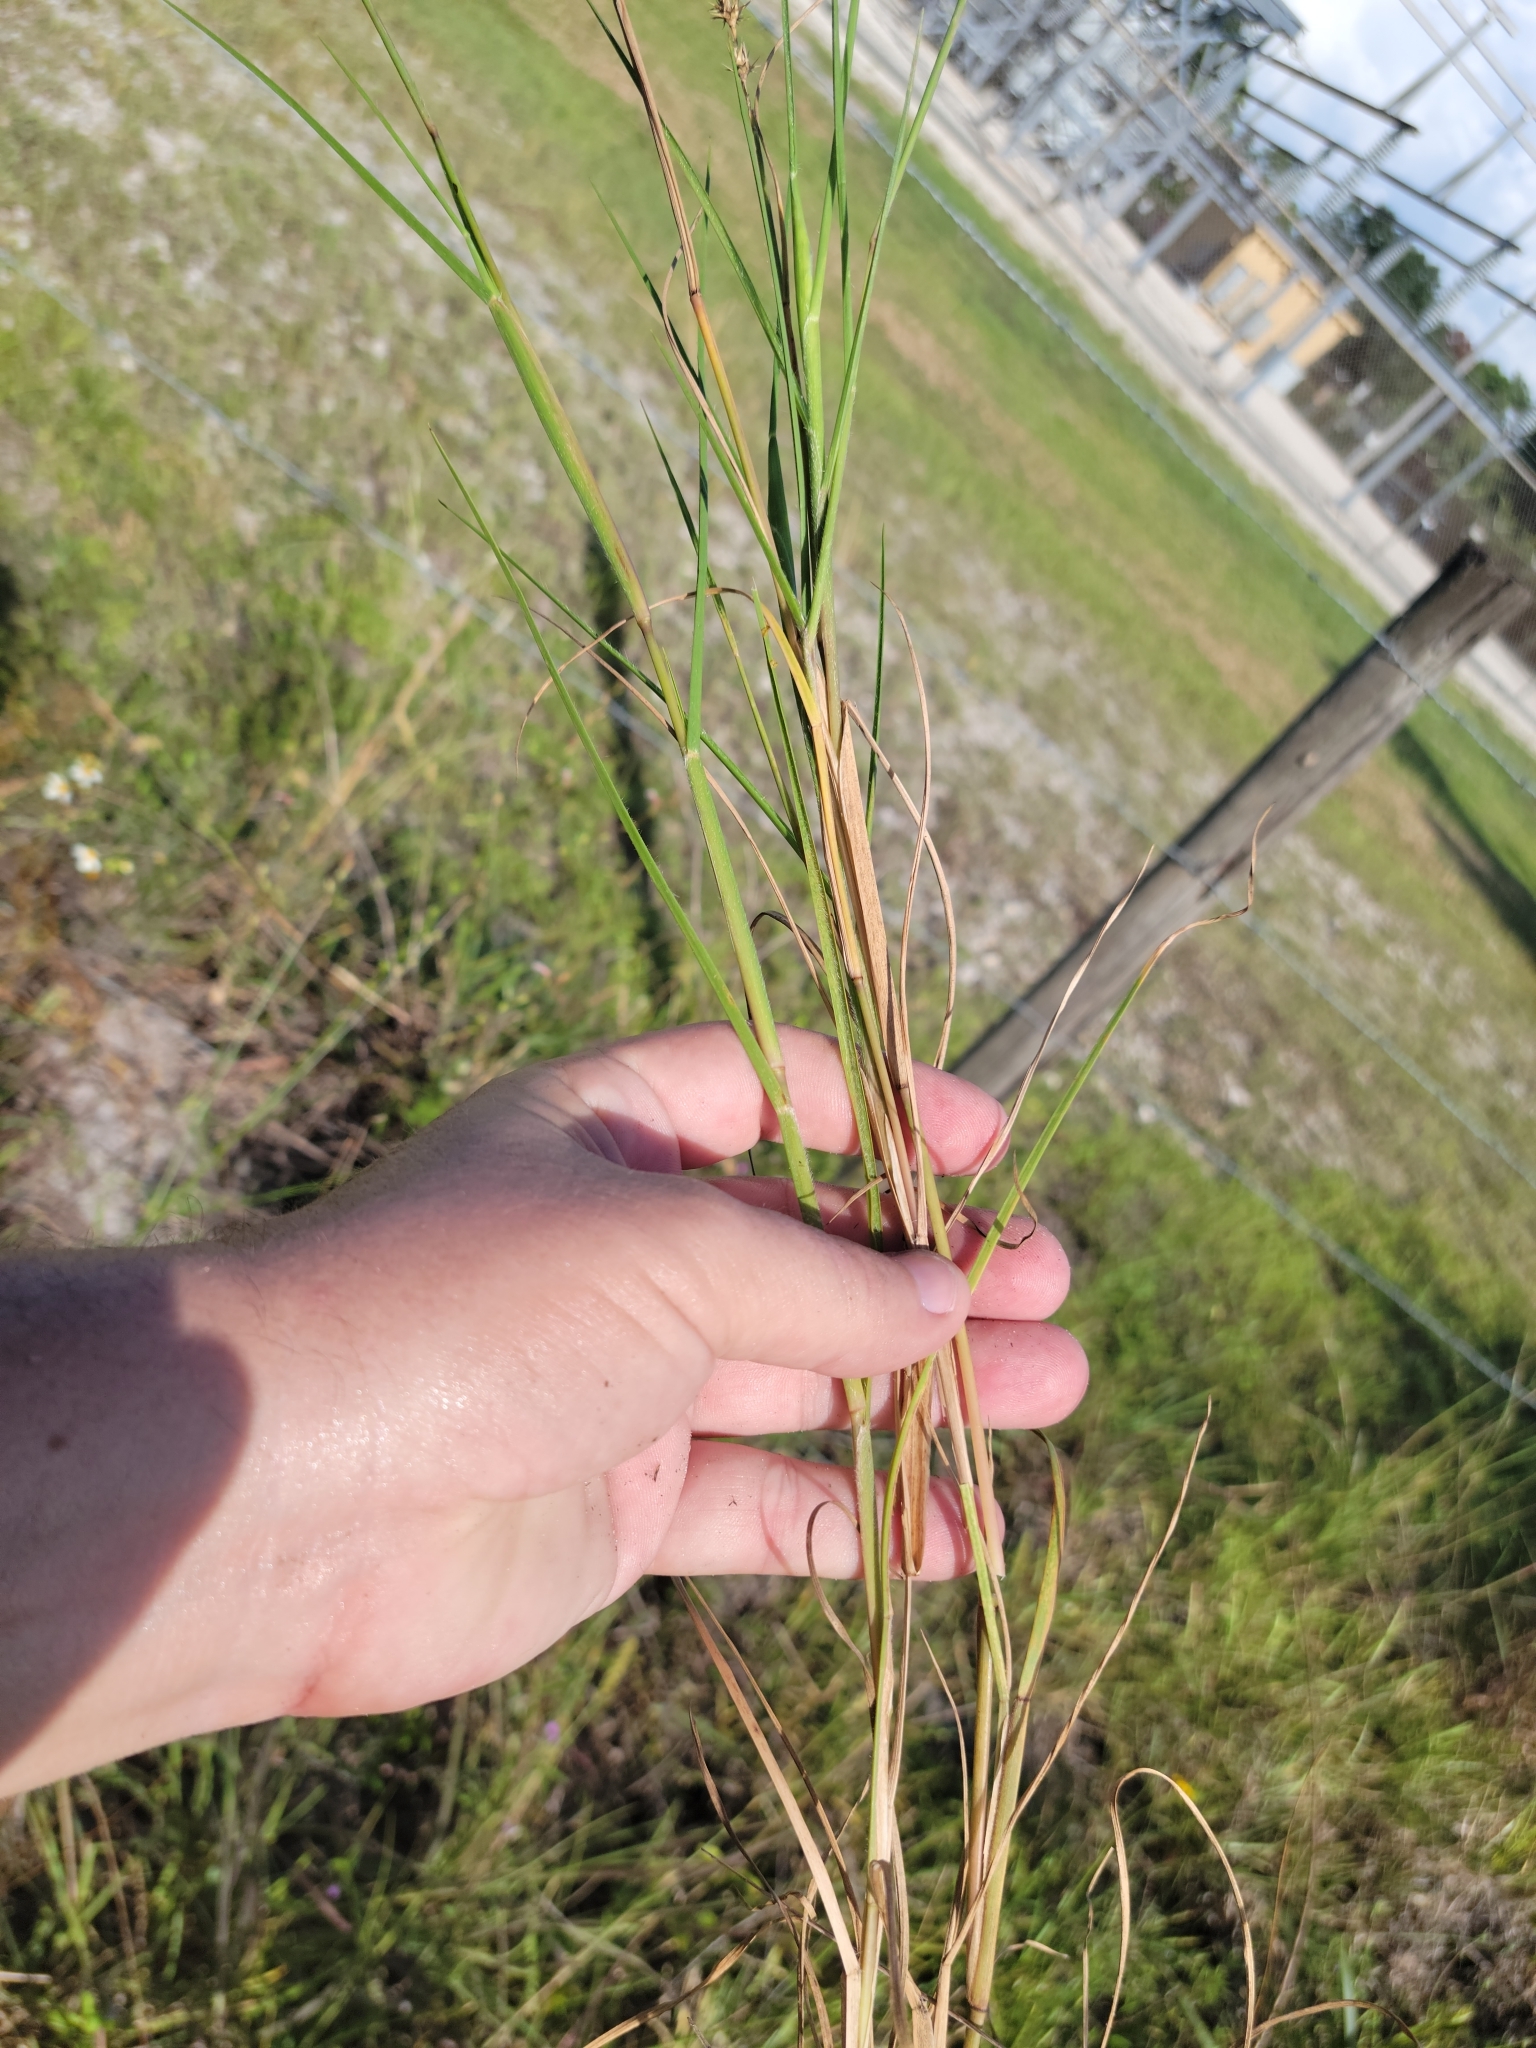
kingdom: Plantae
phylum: Tracheophyta
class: Liliopsida
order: Poales
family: Poaceae
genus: Cenchrus
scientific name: Cenchrus spinifex
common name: Coast sandbur
